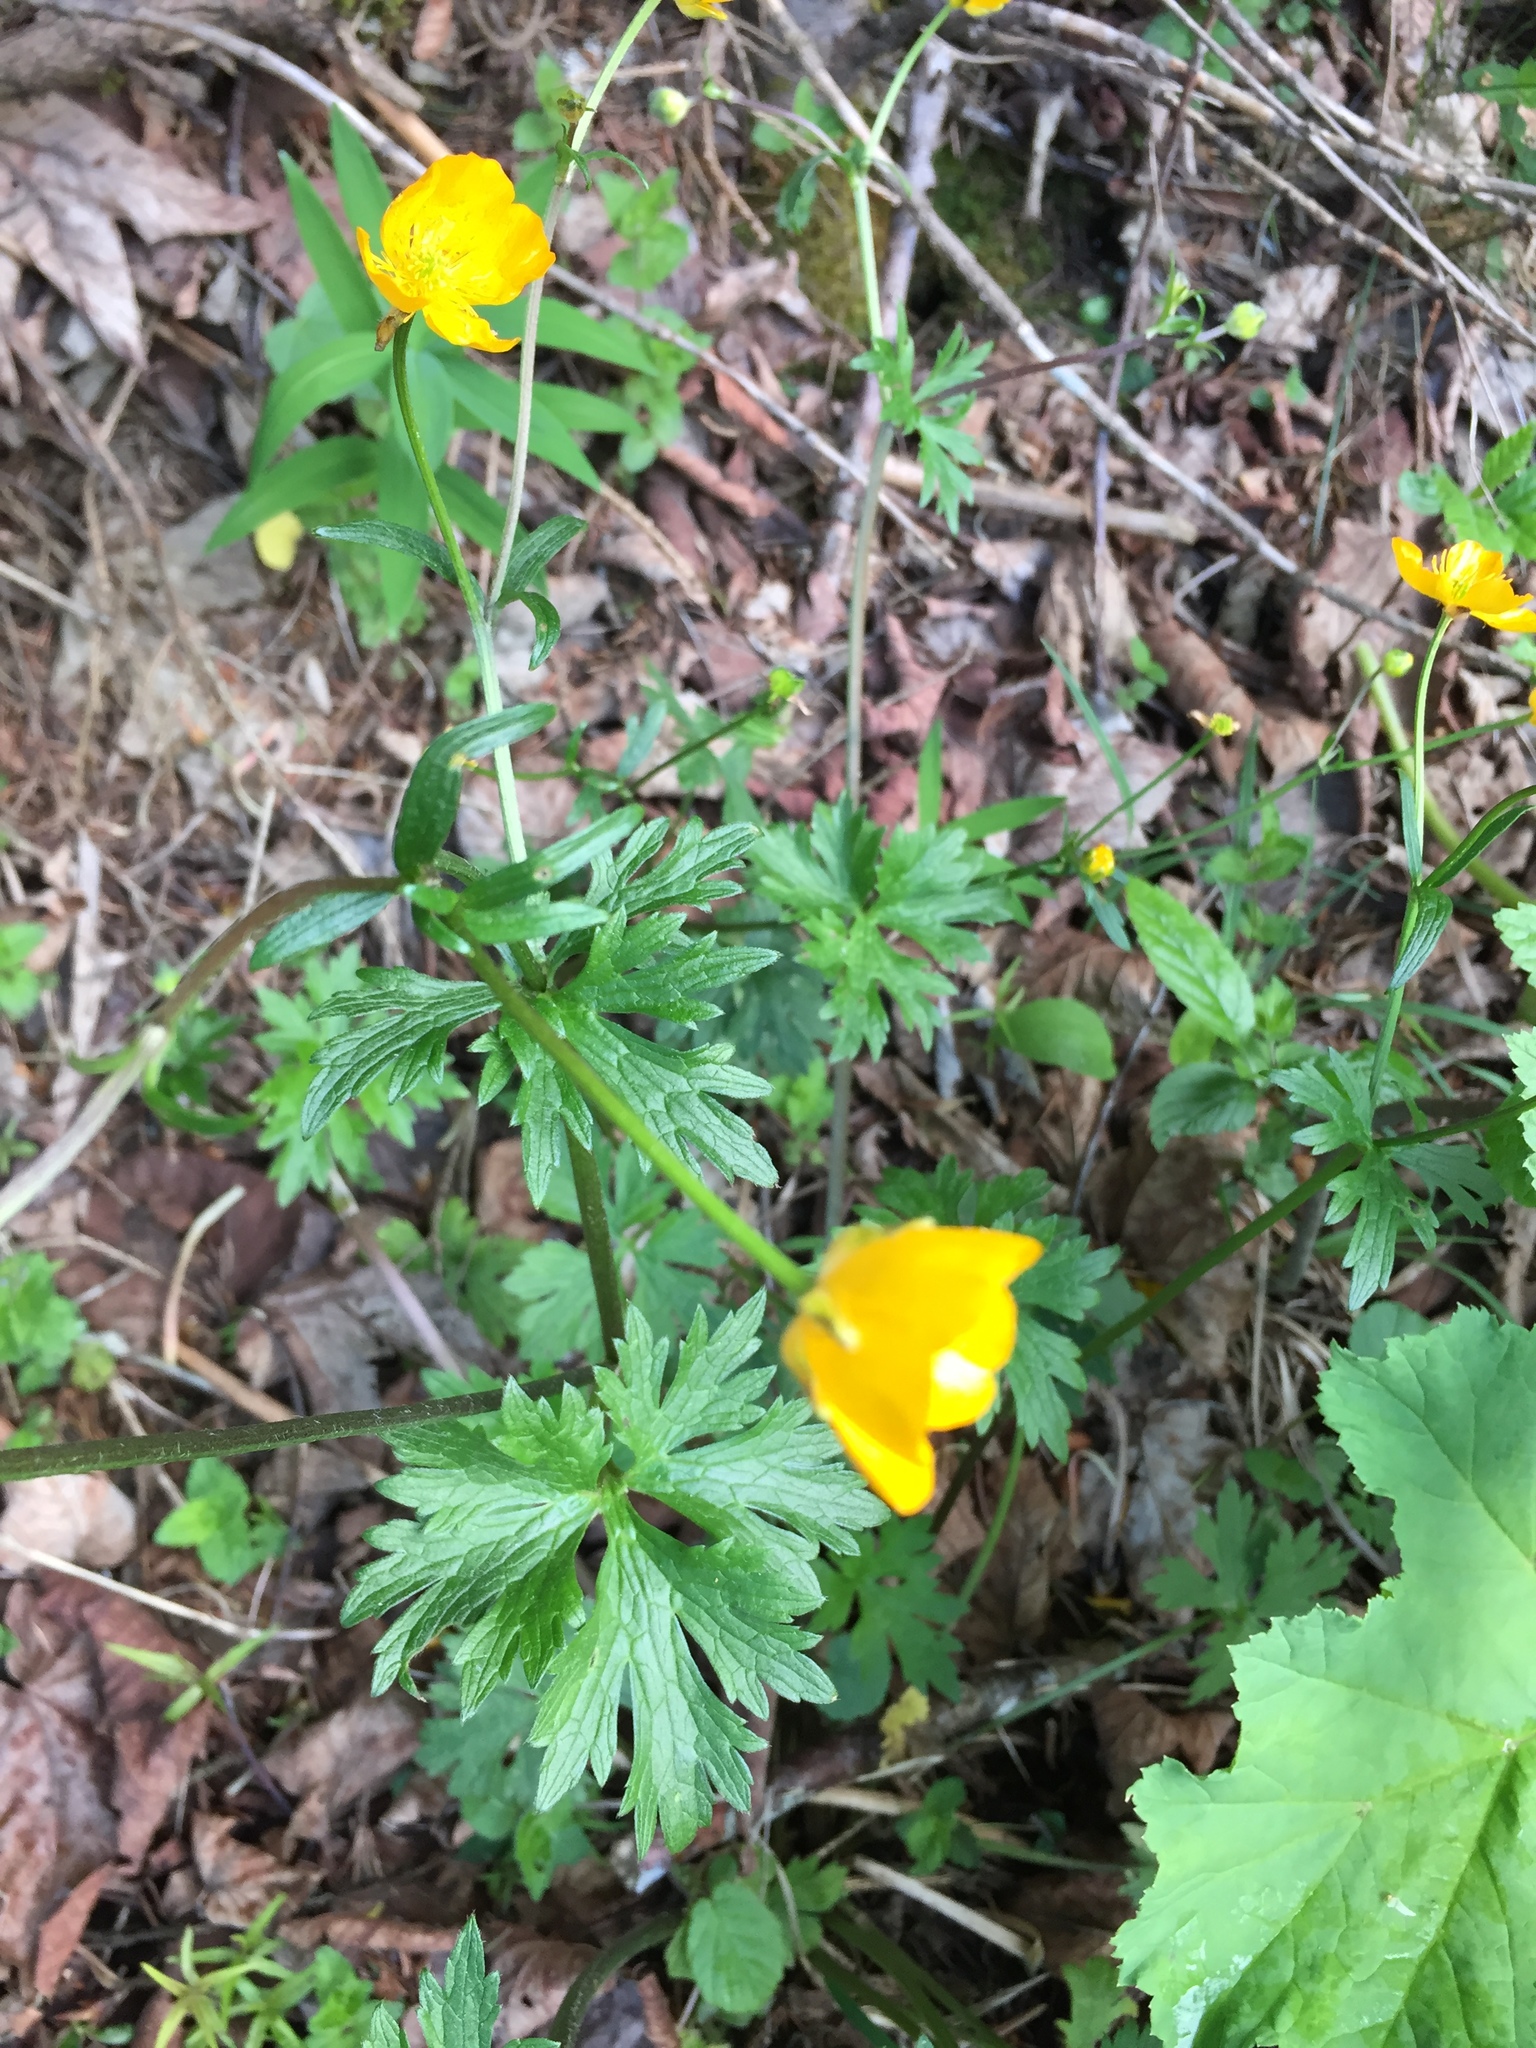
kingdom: Plantae
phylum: Tracheophyta
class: Magnoliopsida
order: Ranunculales
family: Ranunculaceae
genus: Ranunculus
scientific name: Ranunculus
